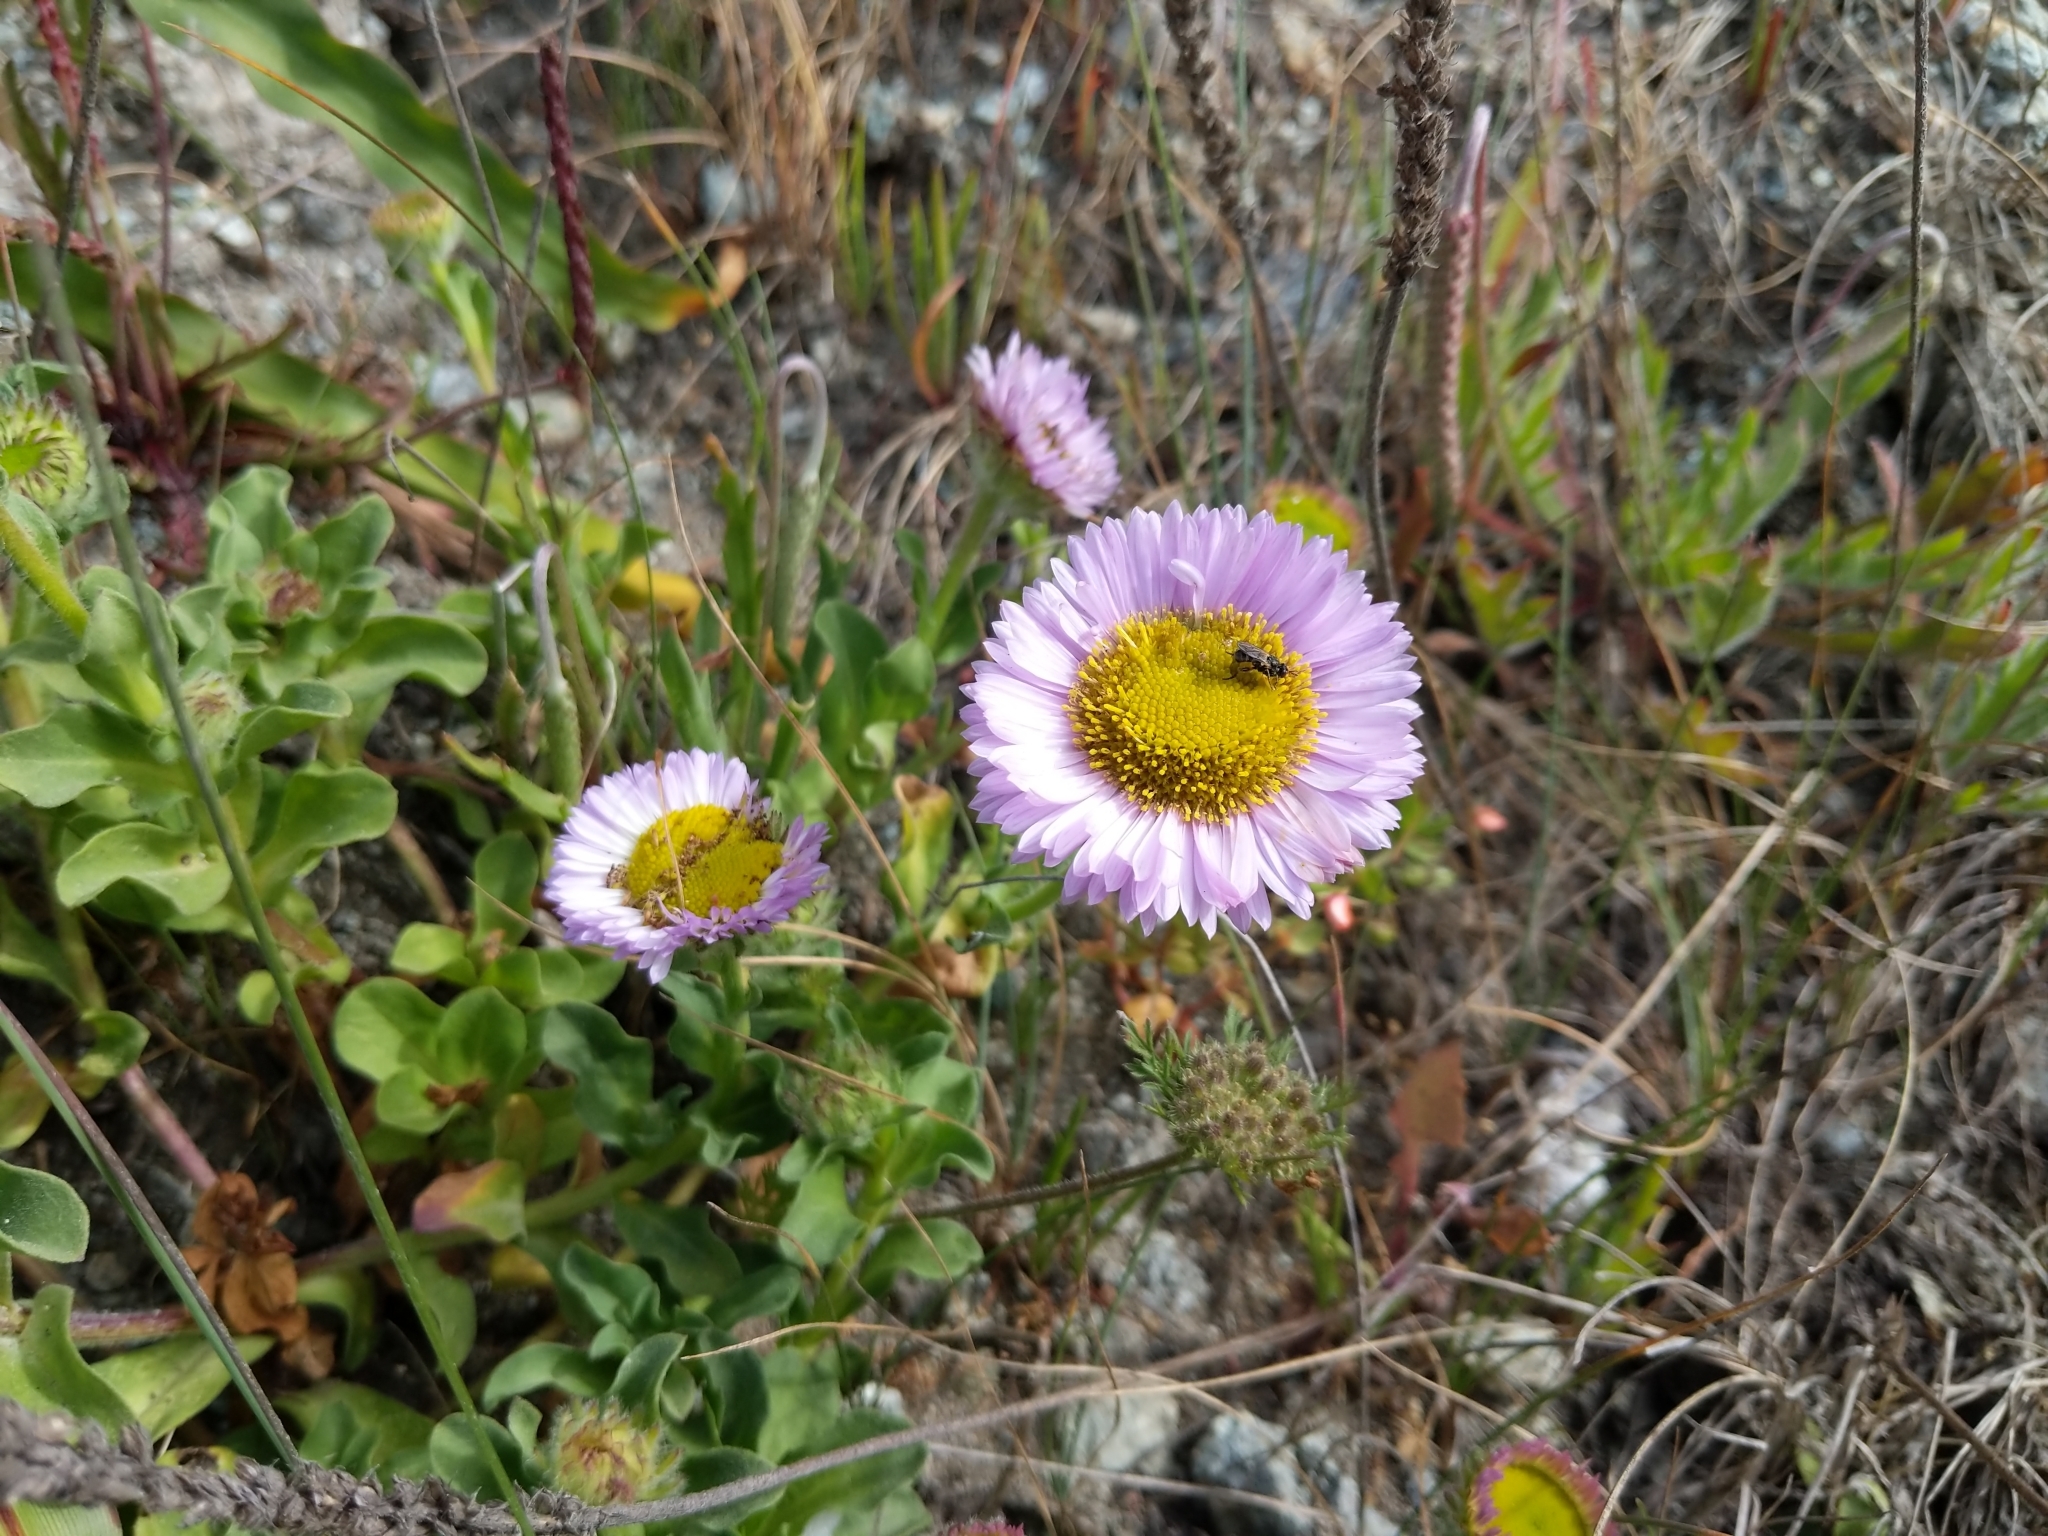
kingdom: Plantae
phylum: Tracheophyta
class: Magnoliopsida
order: Asterales
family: Asteraceae
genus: Erigeron
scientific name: Erigeron glaucus
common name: Seaside daisy
